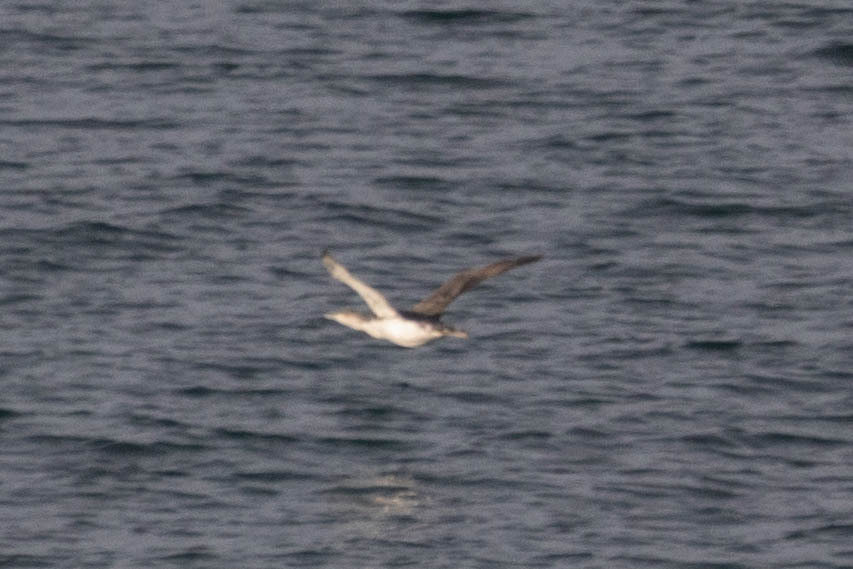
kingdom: Animalia
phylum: Chordata
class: Aves
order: Gaviiformes
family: Gaviidae
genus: Gavia
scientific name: Gavia stellata
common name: Red-throated loon
